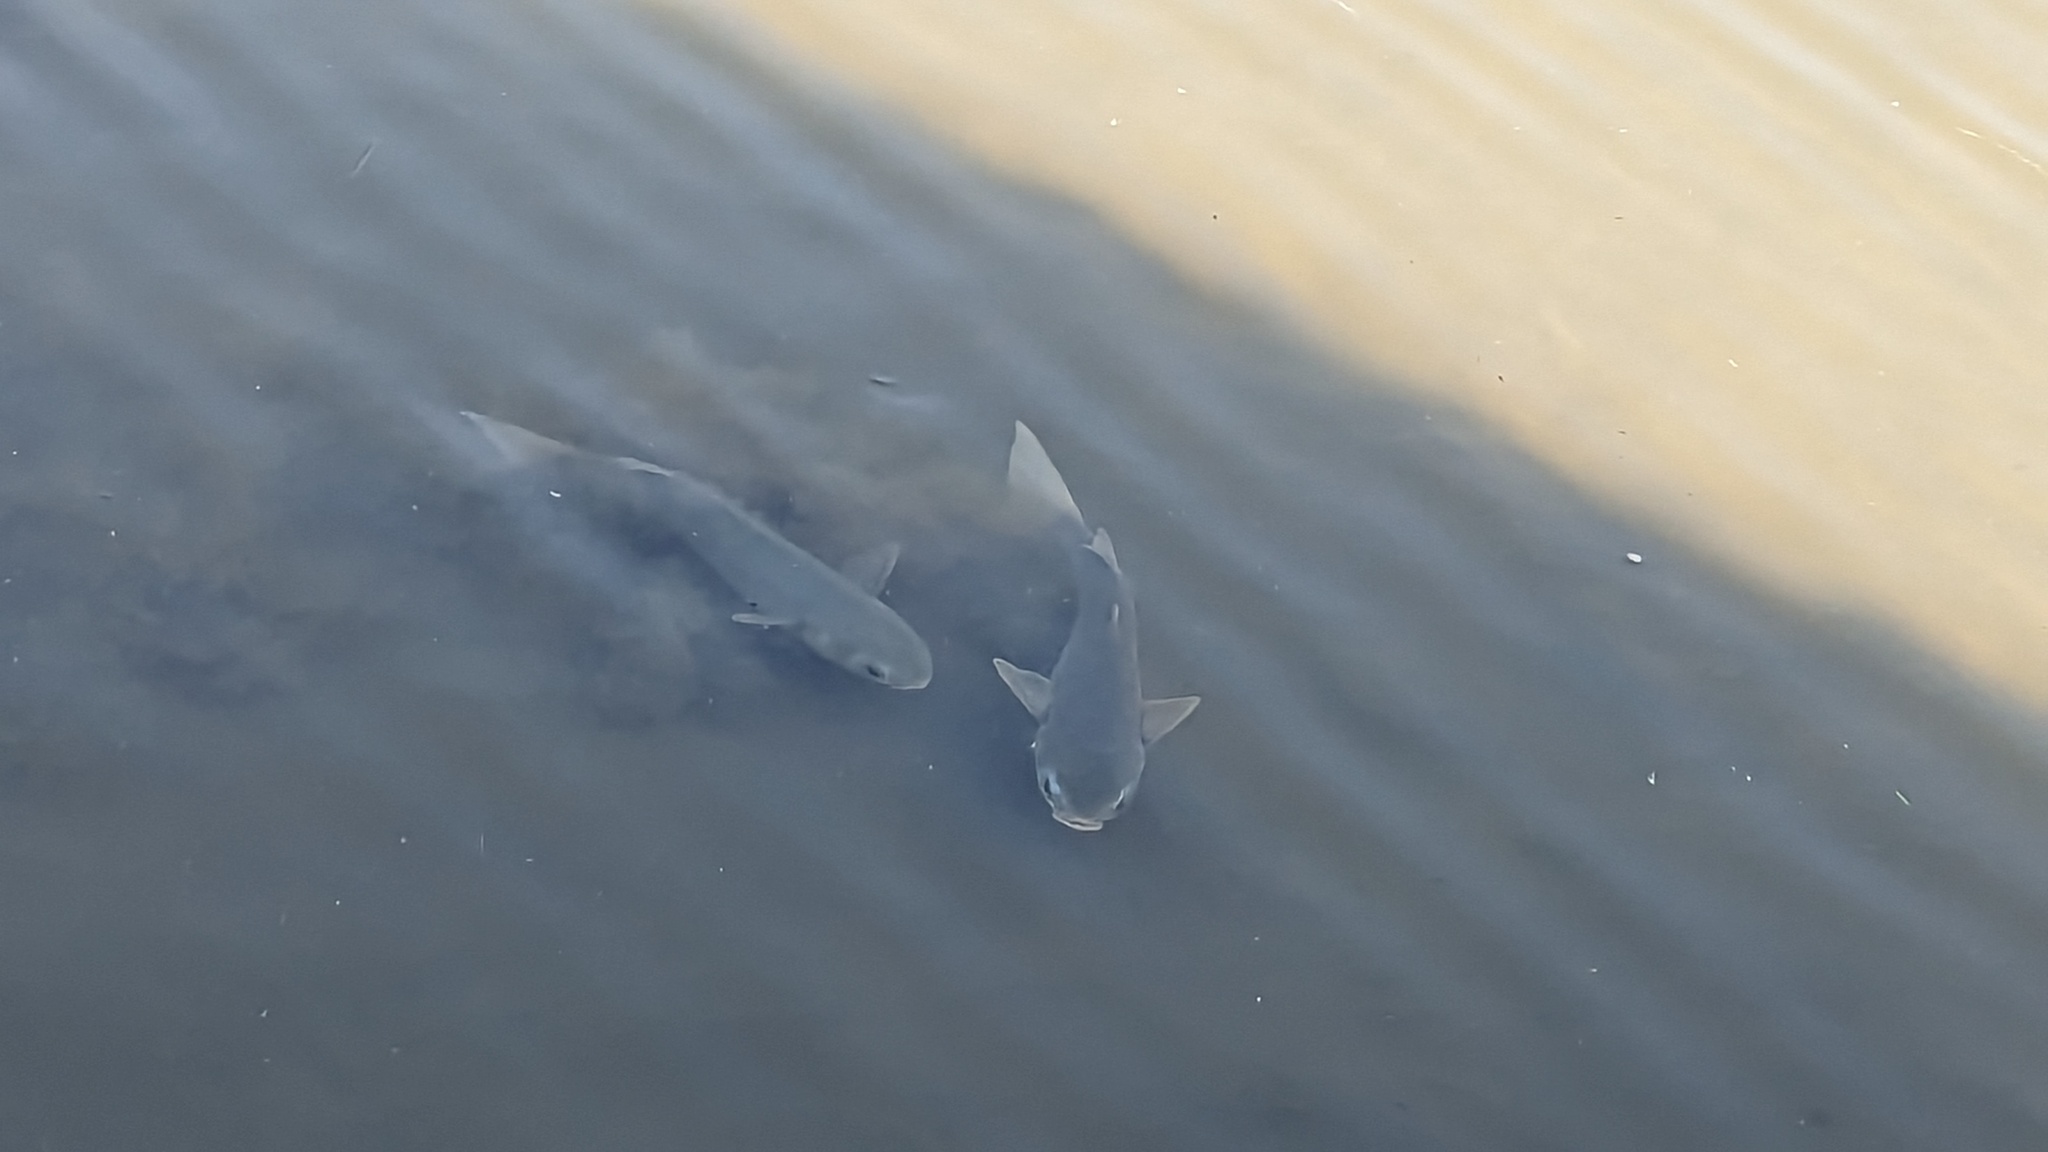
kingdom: Animalia
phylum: Chordata
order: Mugiliformes
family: Mugilidae
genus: Mugil
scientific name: Mugil cephalus
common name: Grey mullet
